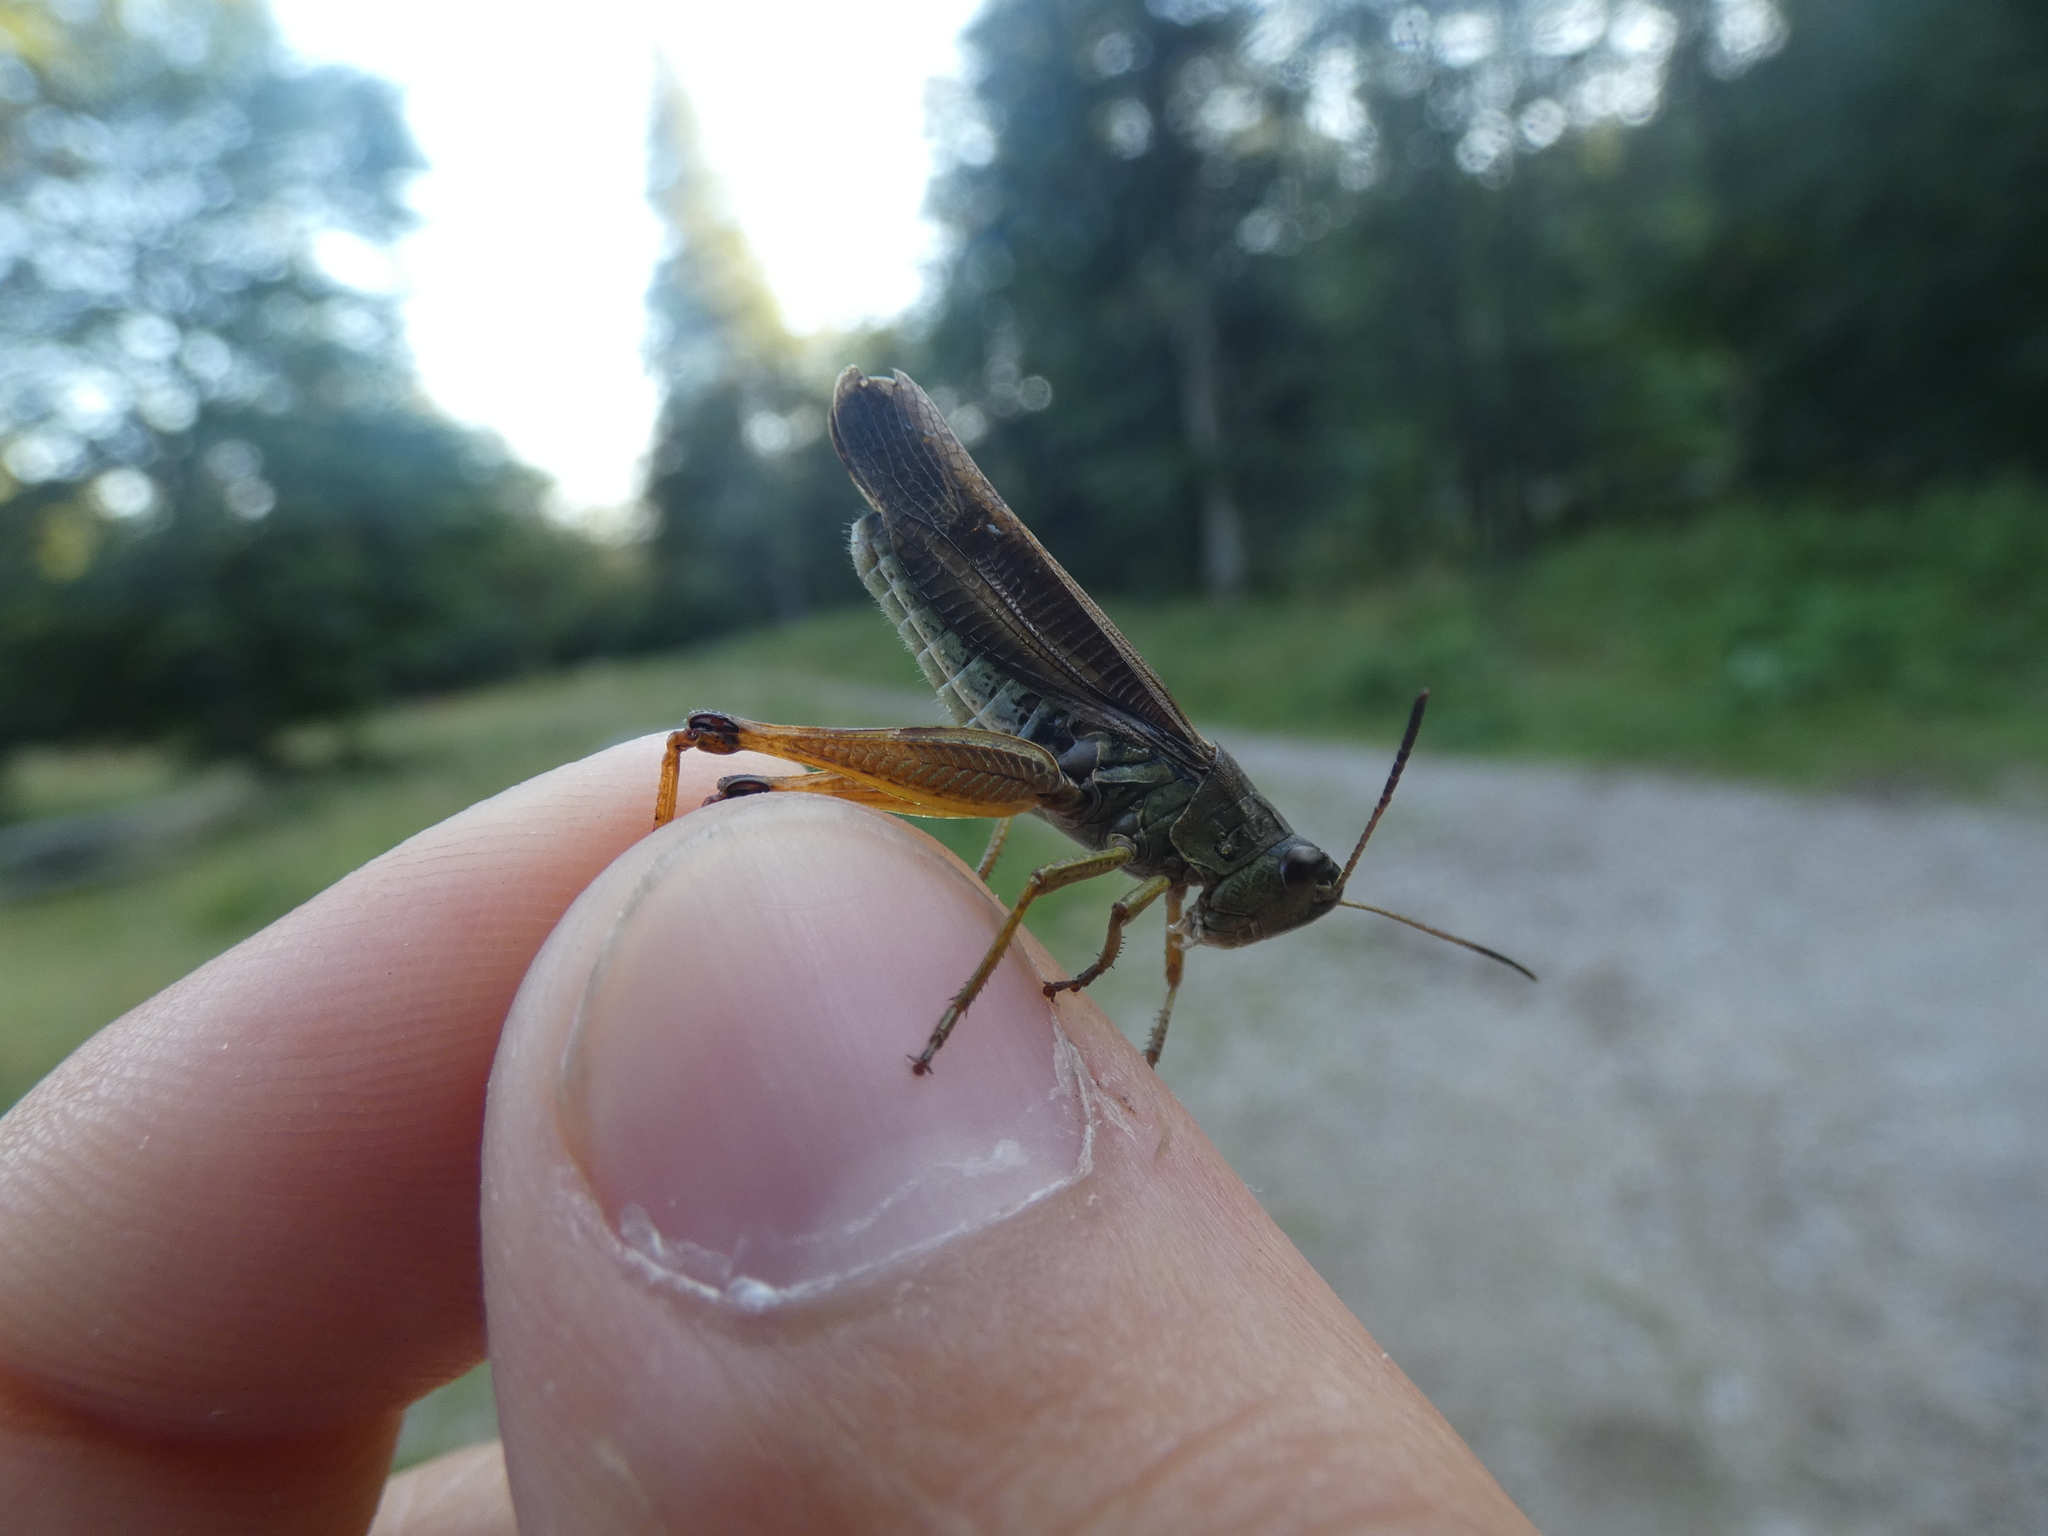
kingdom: Animalia
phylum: Arthropoda
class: Insecta
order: Orthoptera
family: Acrididae
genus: Stauroderus
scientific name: Stauroderus scalaris
